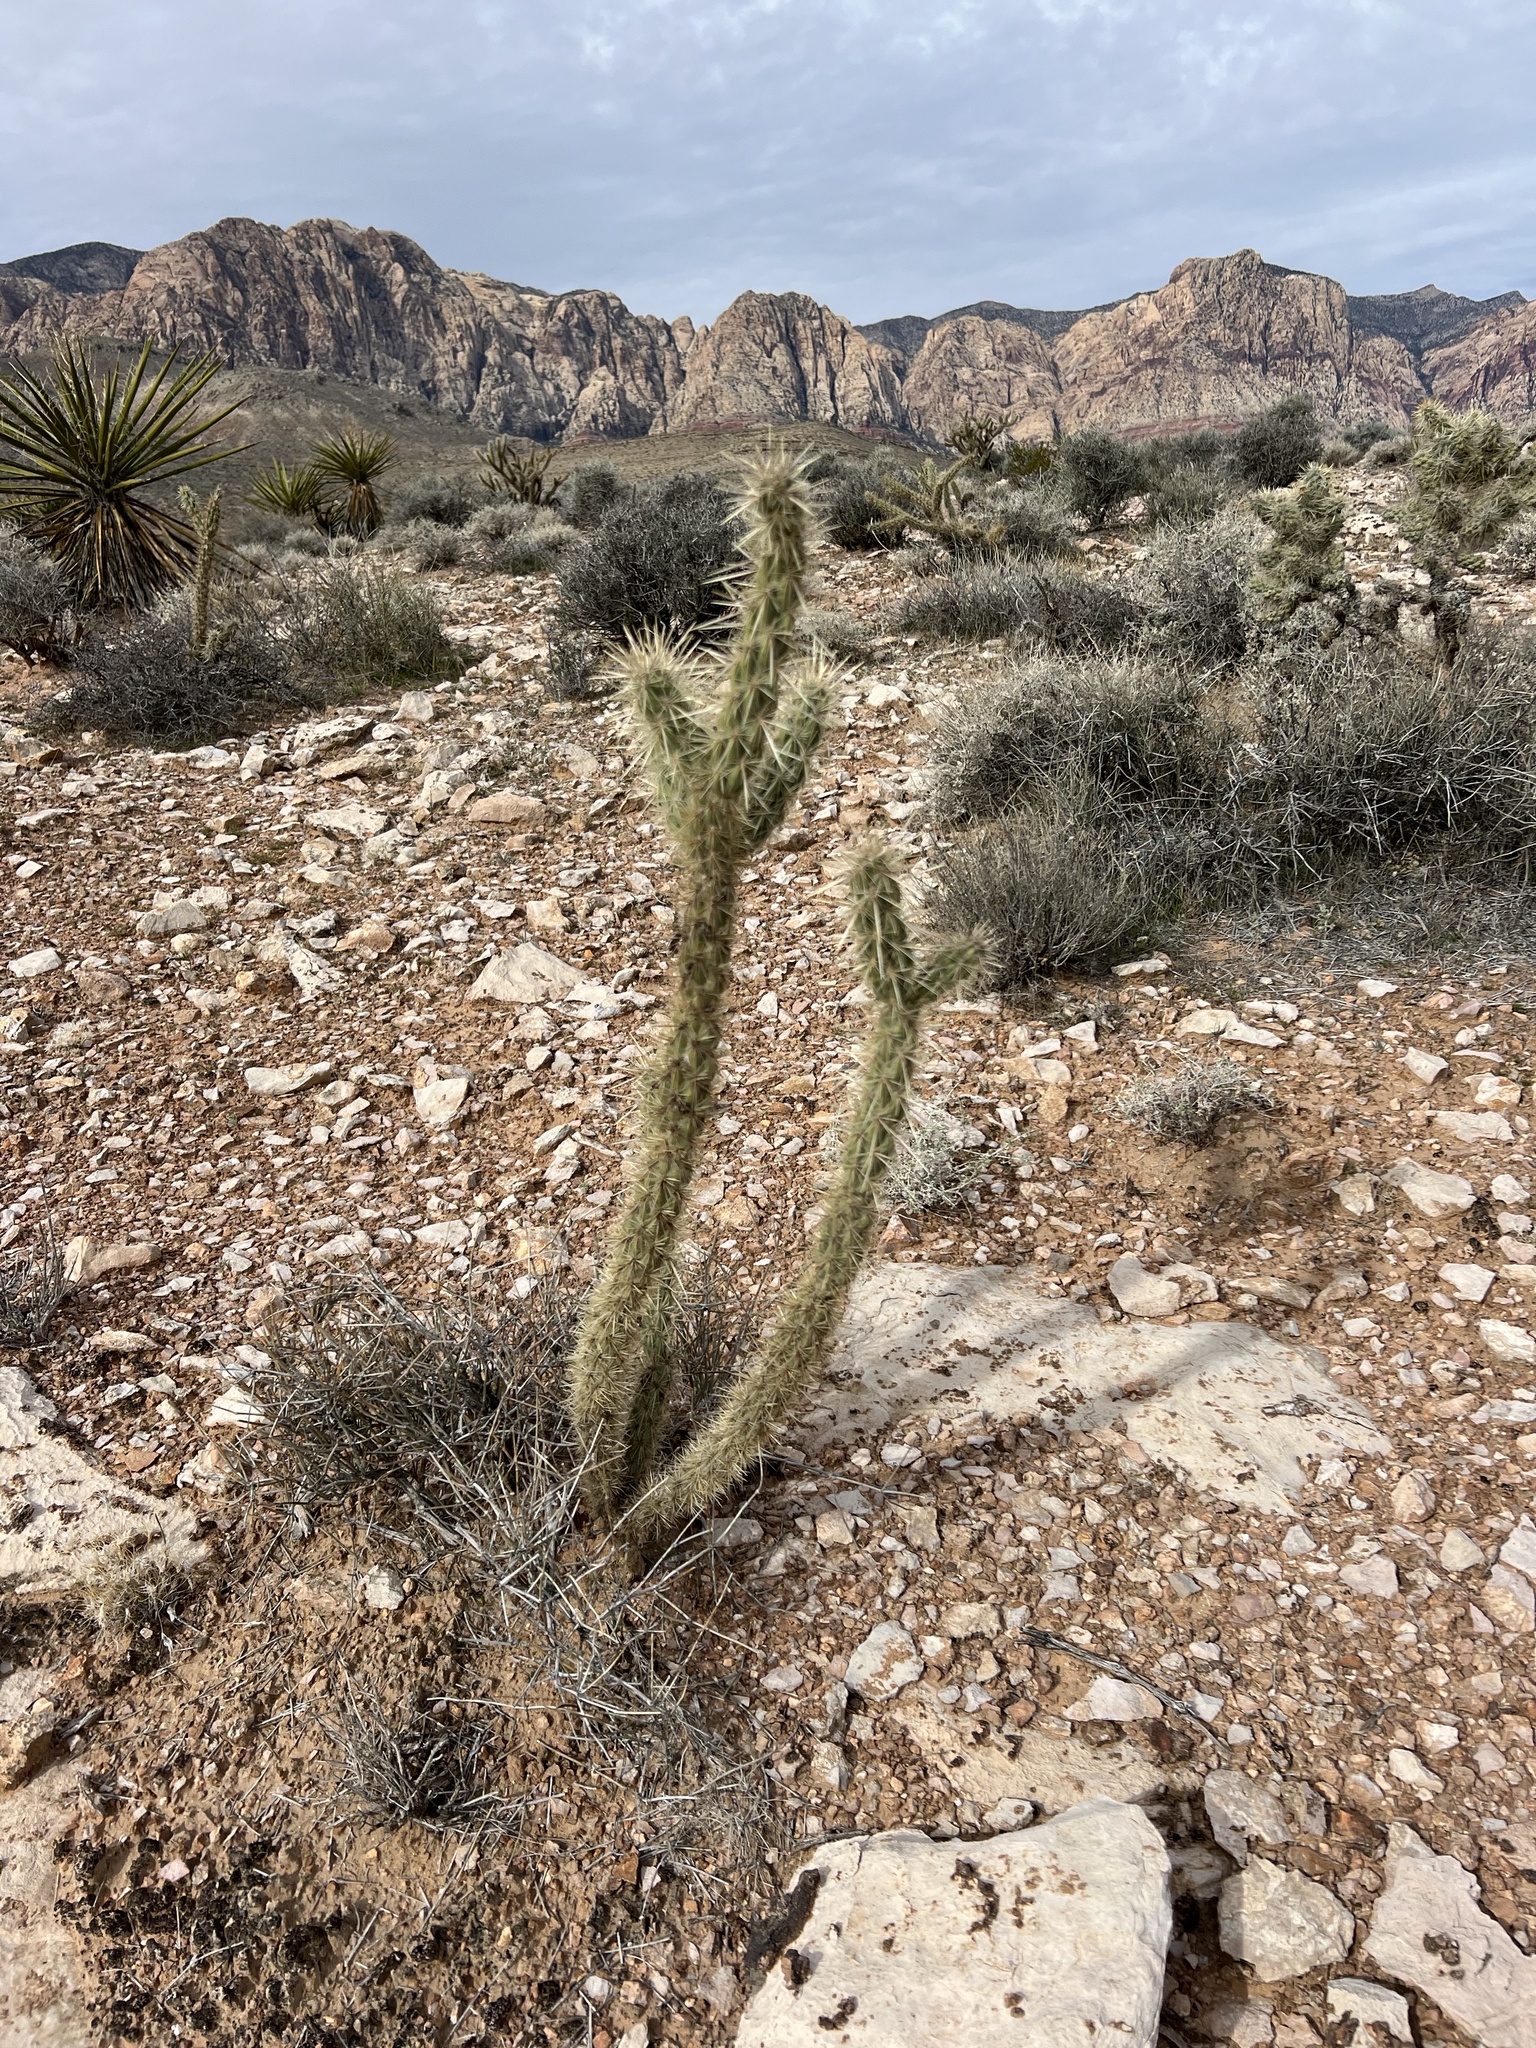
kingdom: Plantae
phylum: Tracheophyta
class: Magnoliopsida
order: Caryophyllales
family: Cactaceae
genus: Cylindropuntia
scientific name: Cylindropuntia acanthocarpa
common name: Buckhorn cholla
